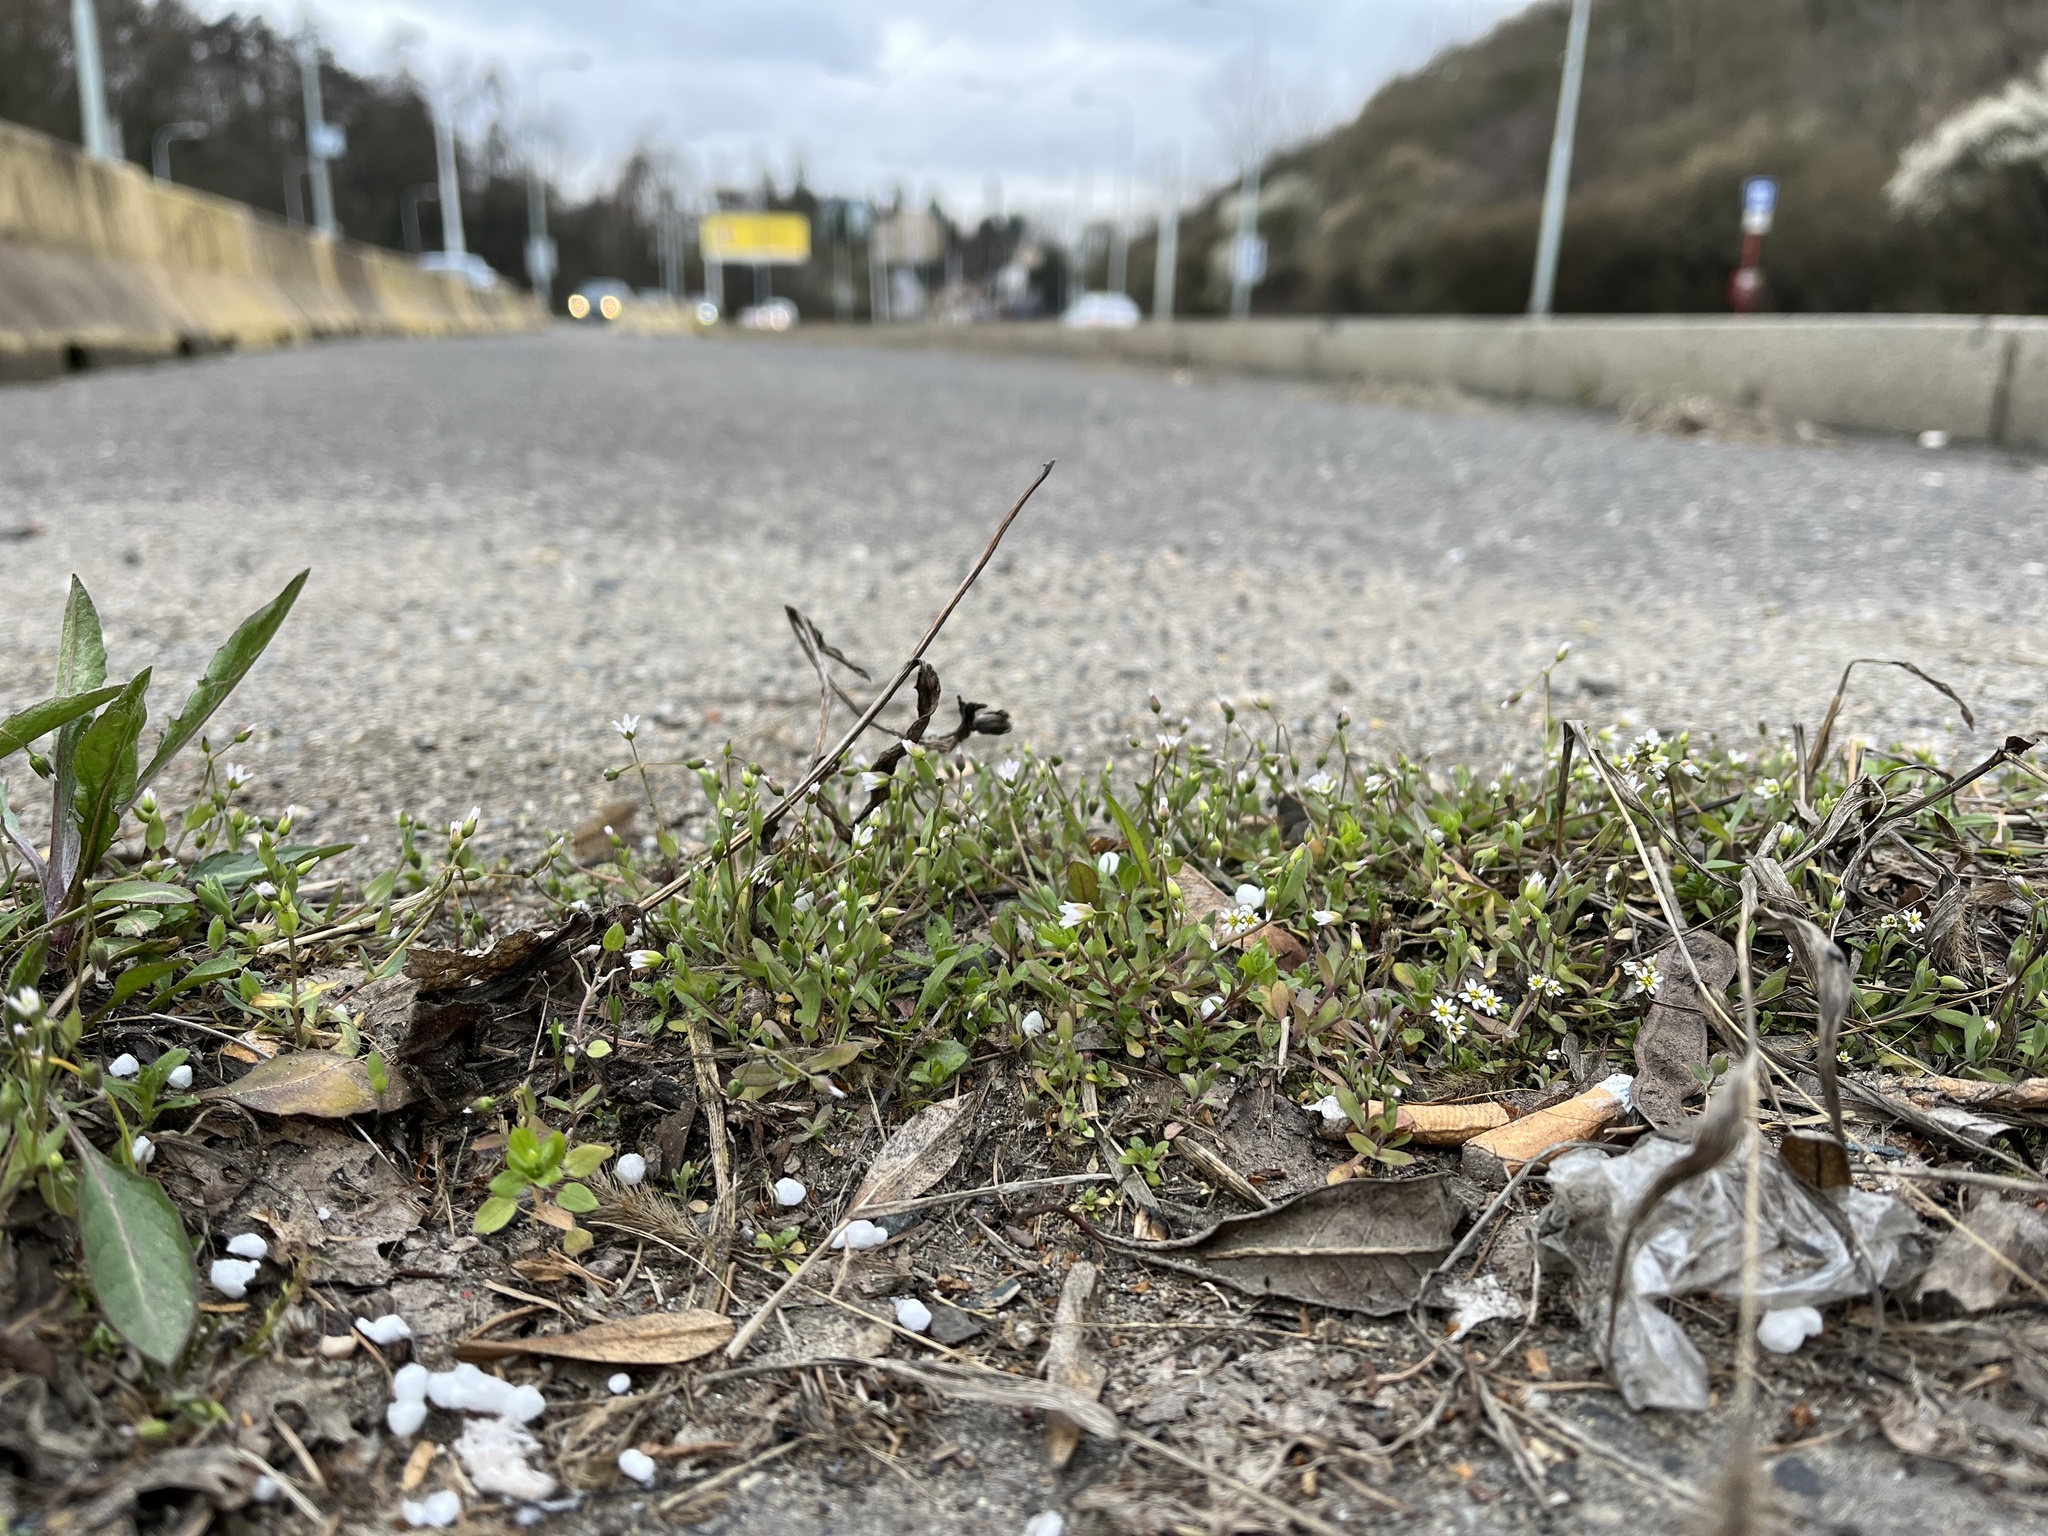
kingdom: Plantae
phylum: Tracheophyta
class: Magnoliopsida
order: Brassicales
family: Brassicaceae
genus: Draba
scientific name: Draba verna
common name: Spring draba
